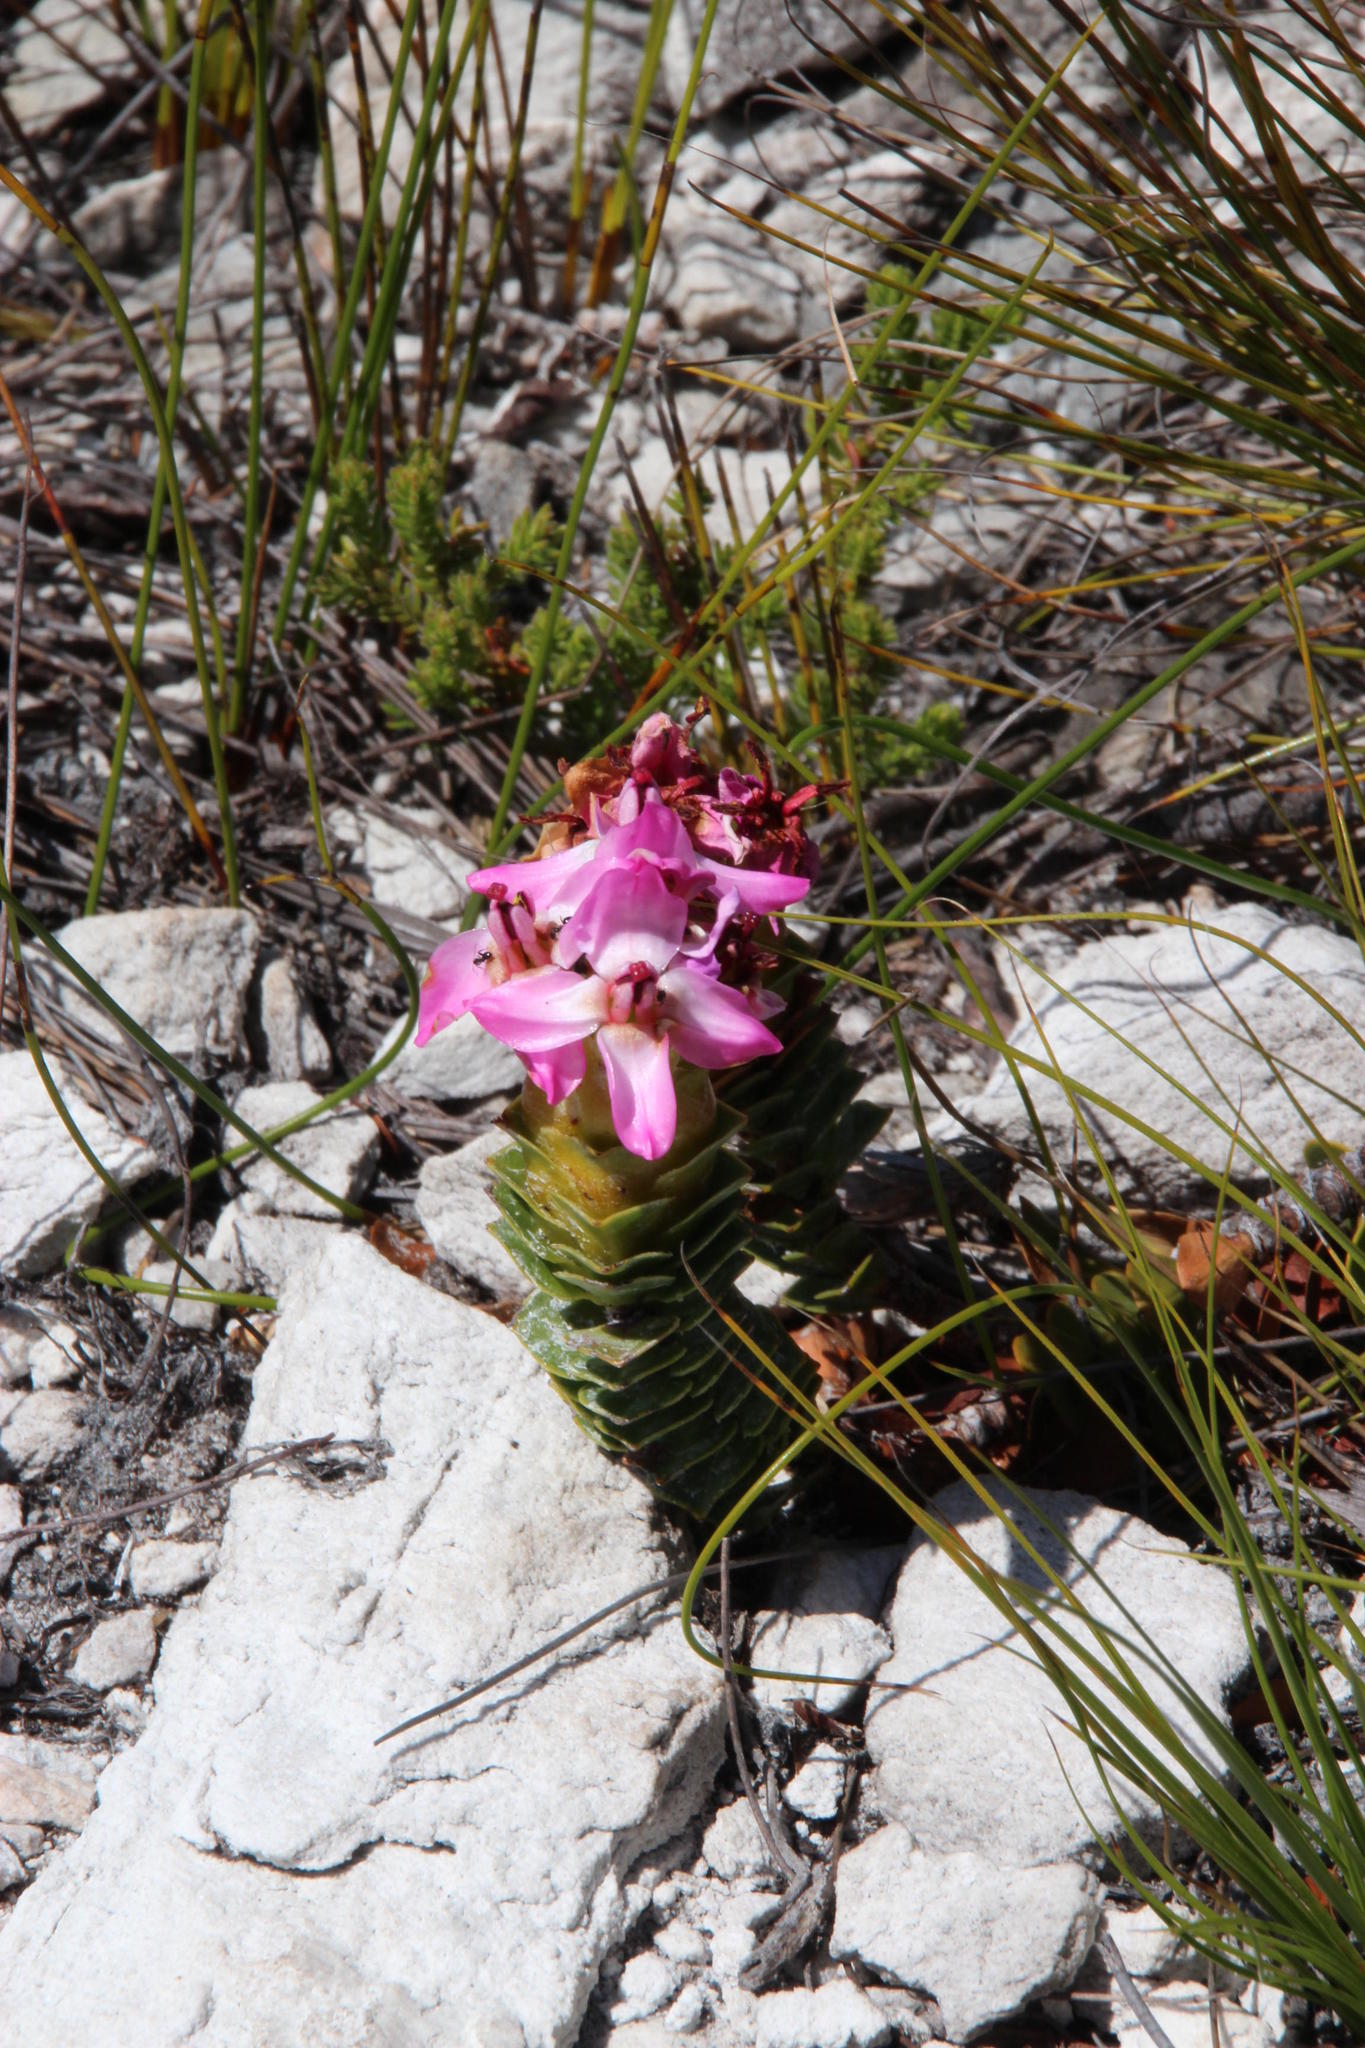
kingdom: Plantae
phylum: Tracheophyta
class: Magnoliopsida
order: Myrtales
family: Penaeaceae
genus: Saltera
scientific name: Saltera sarcocolla
